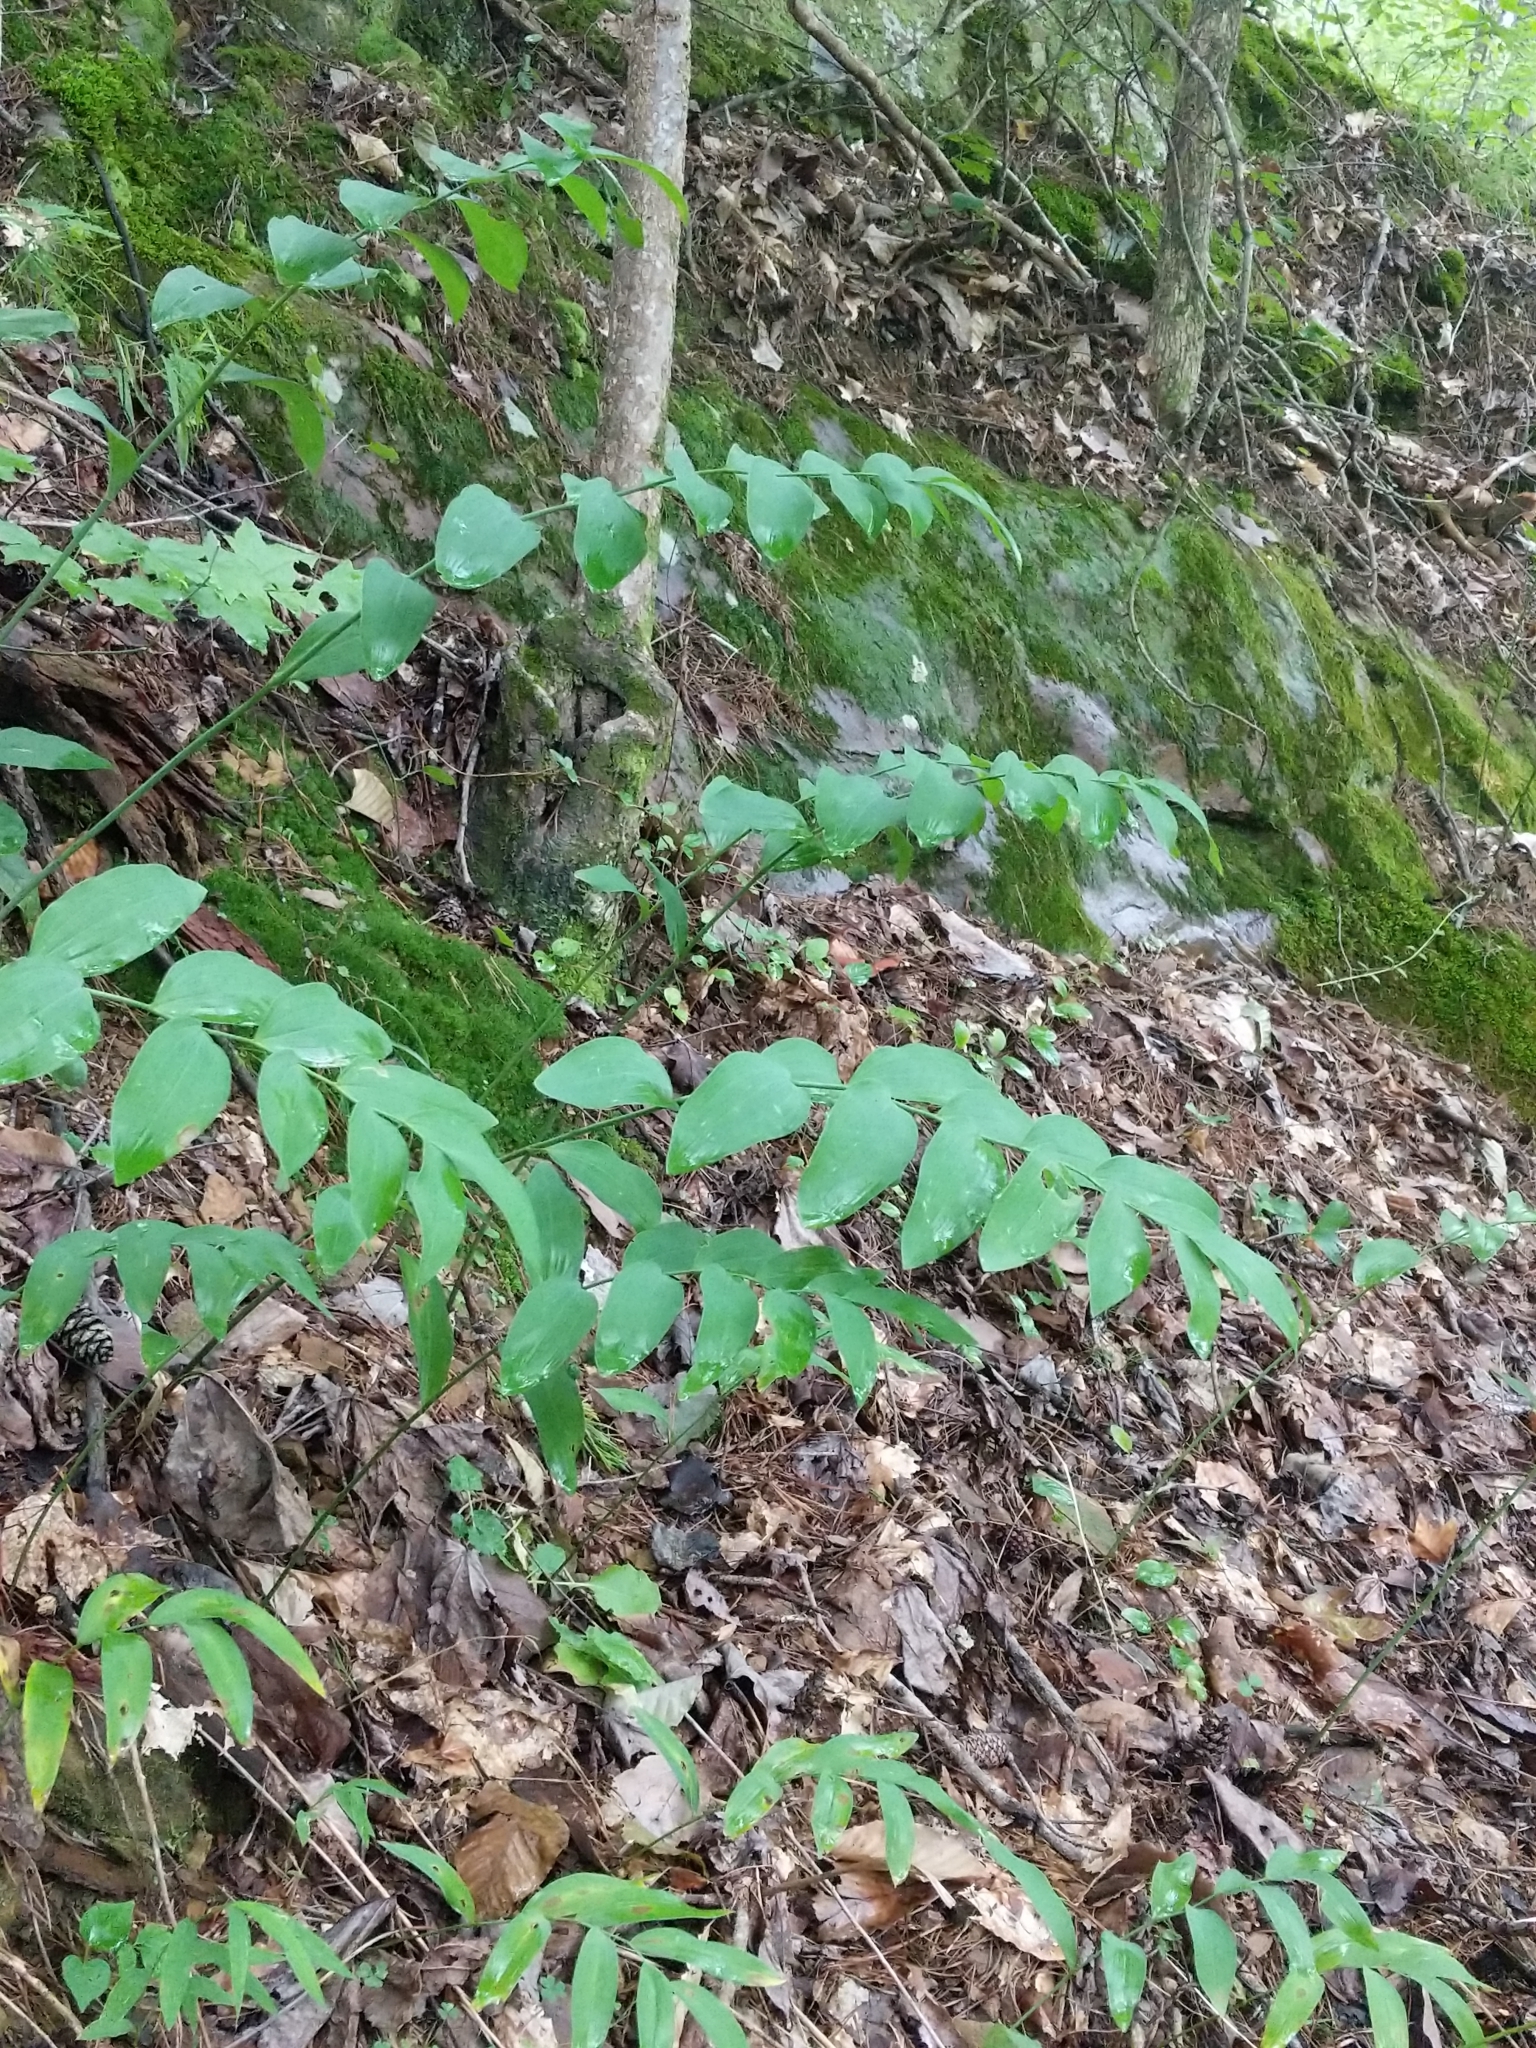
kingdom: Plantae
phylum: Tracheophyta
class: Liliopsida
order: Asparagales
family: Asparagaceae
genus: Polygonatum
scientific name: Polygonatum biflorum
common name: American solomon's-seal
